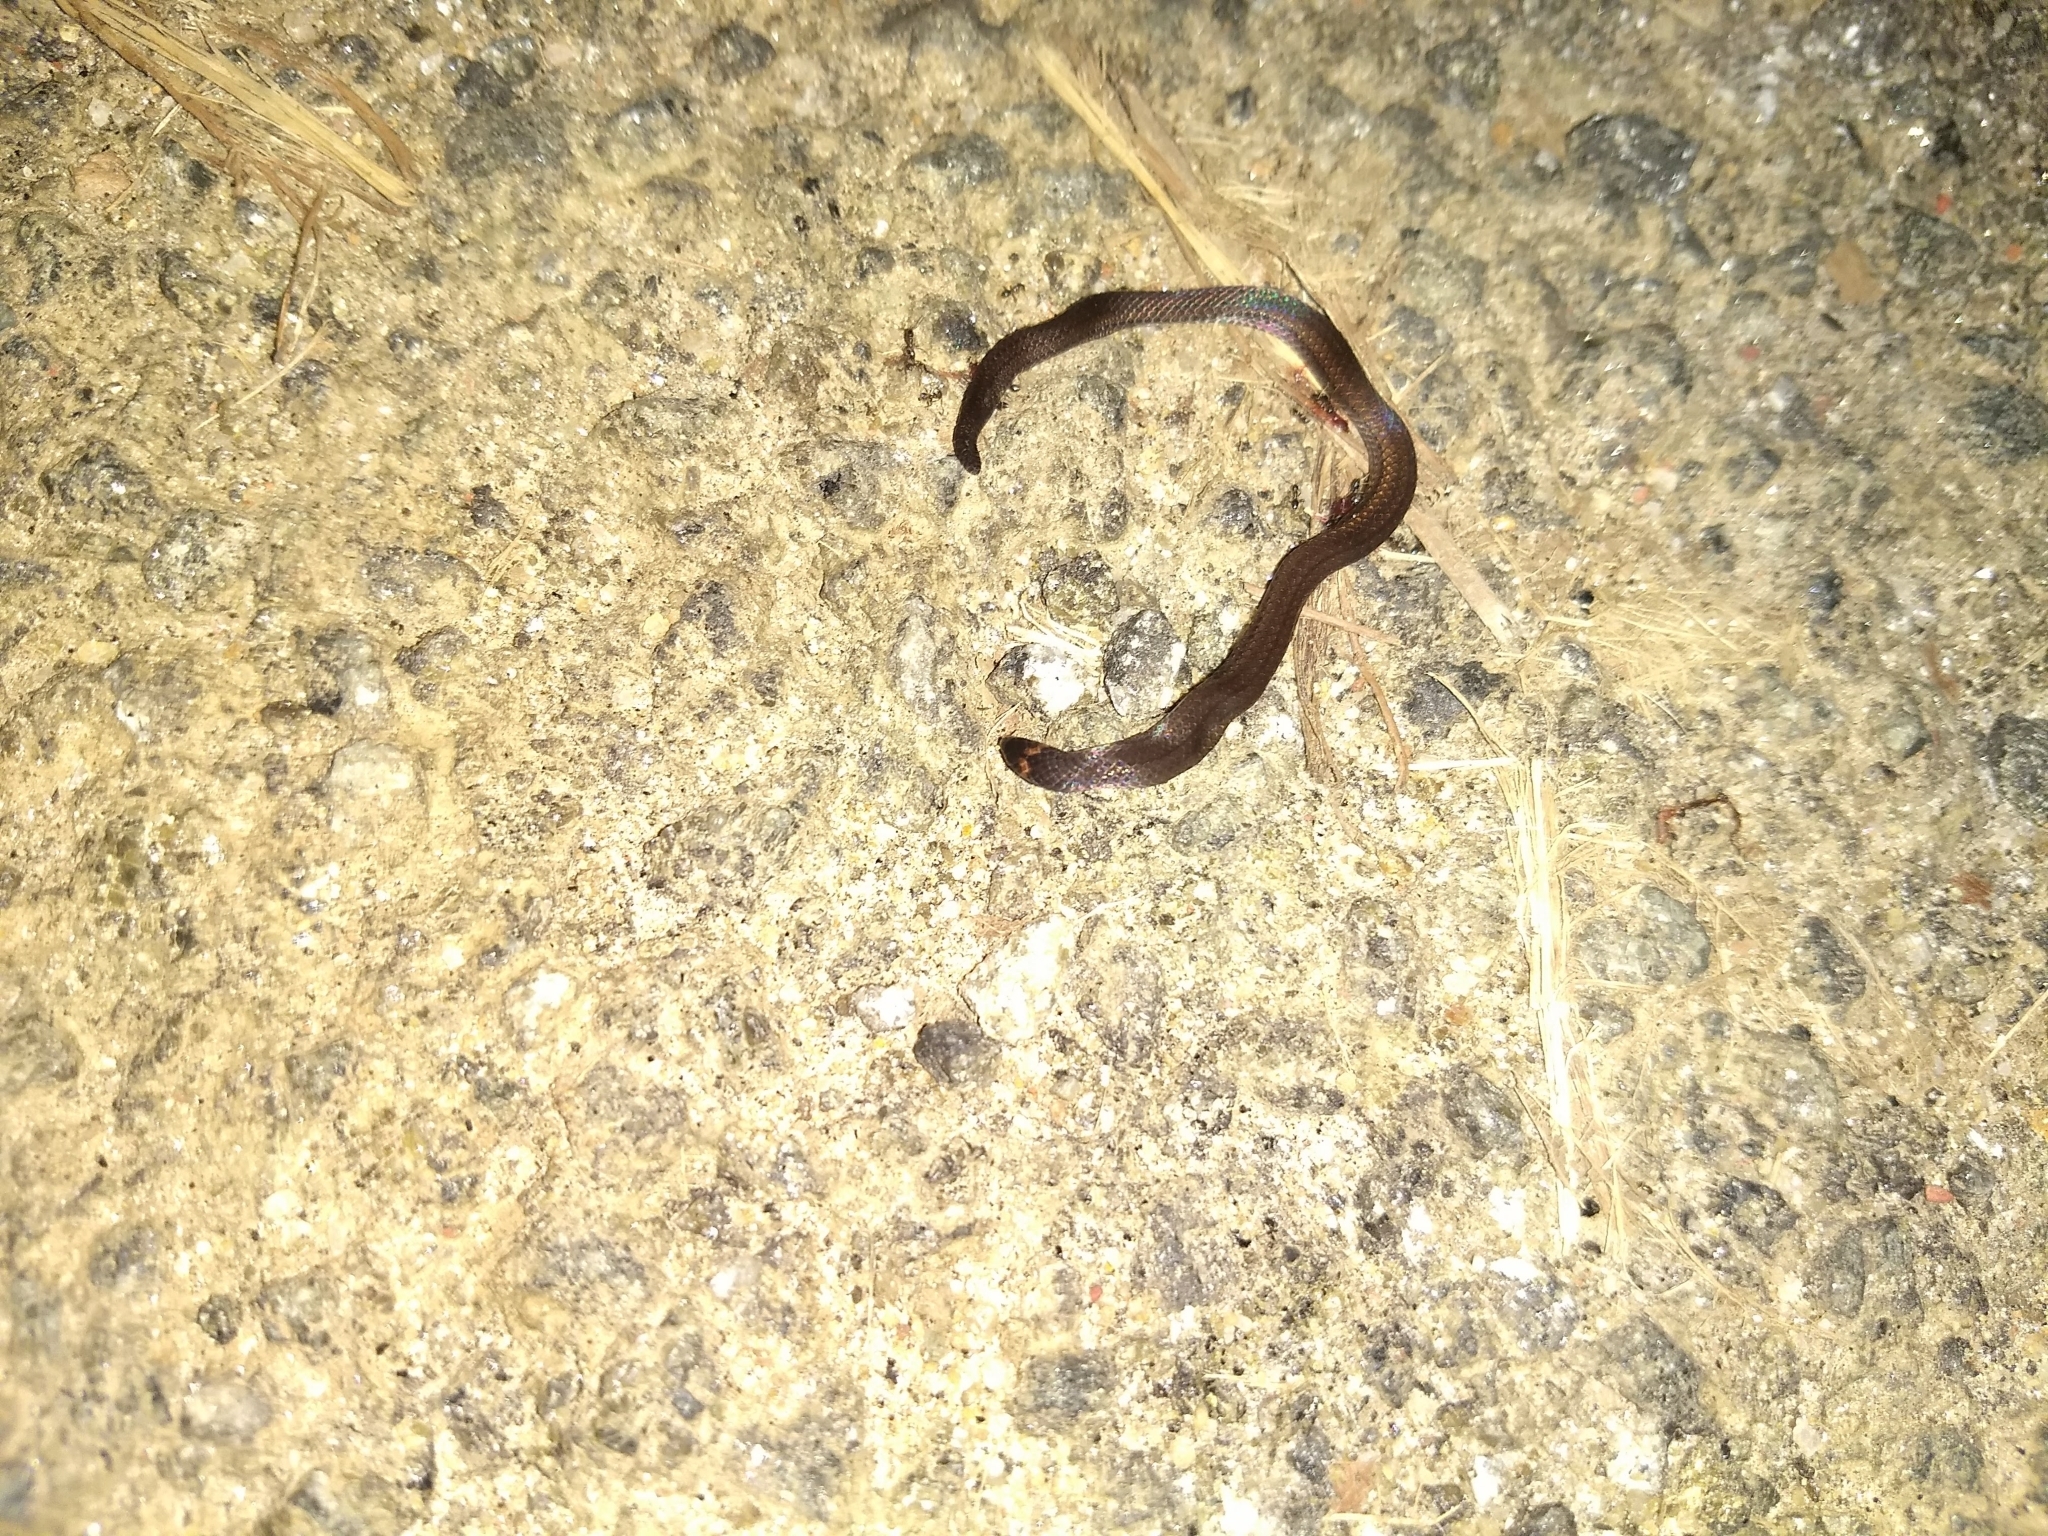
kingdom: Animalia
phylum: Chordata
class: Squamata
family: Pareidae
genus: Xylophis
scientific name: Xylophis captaini
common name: Captain's wood snake
